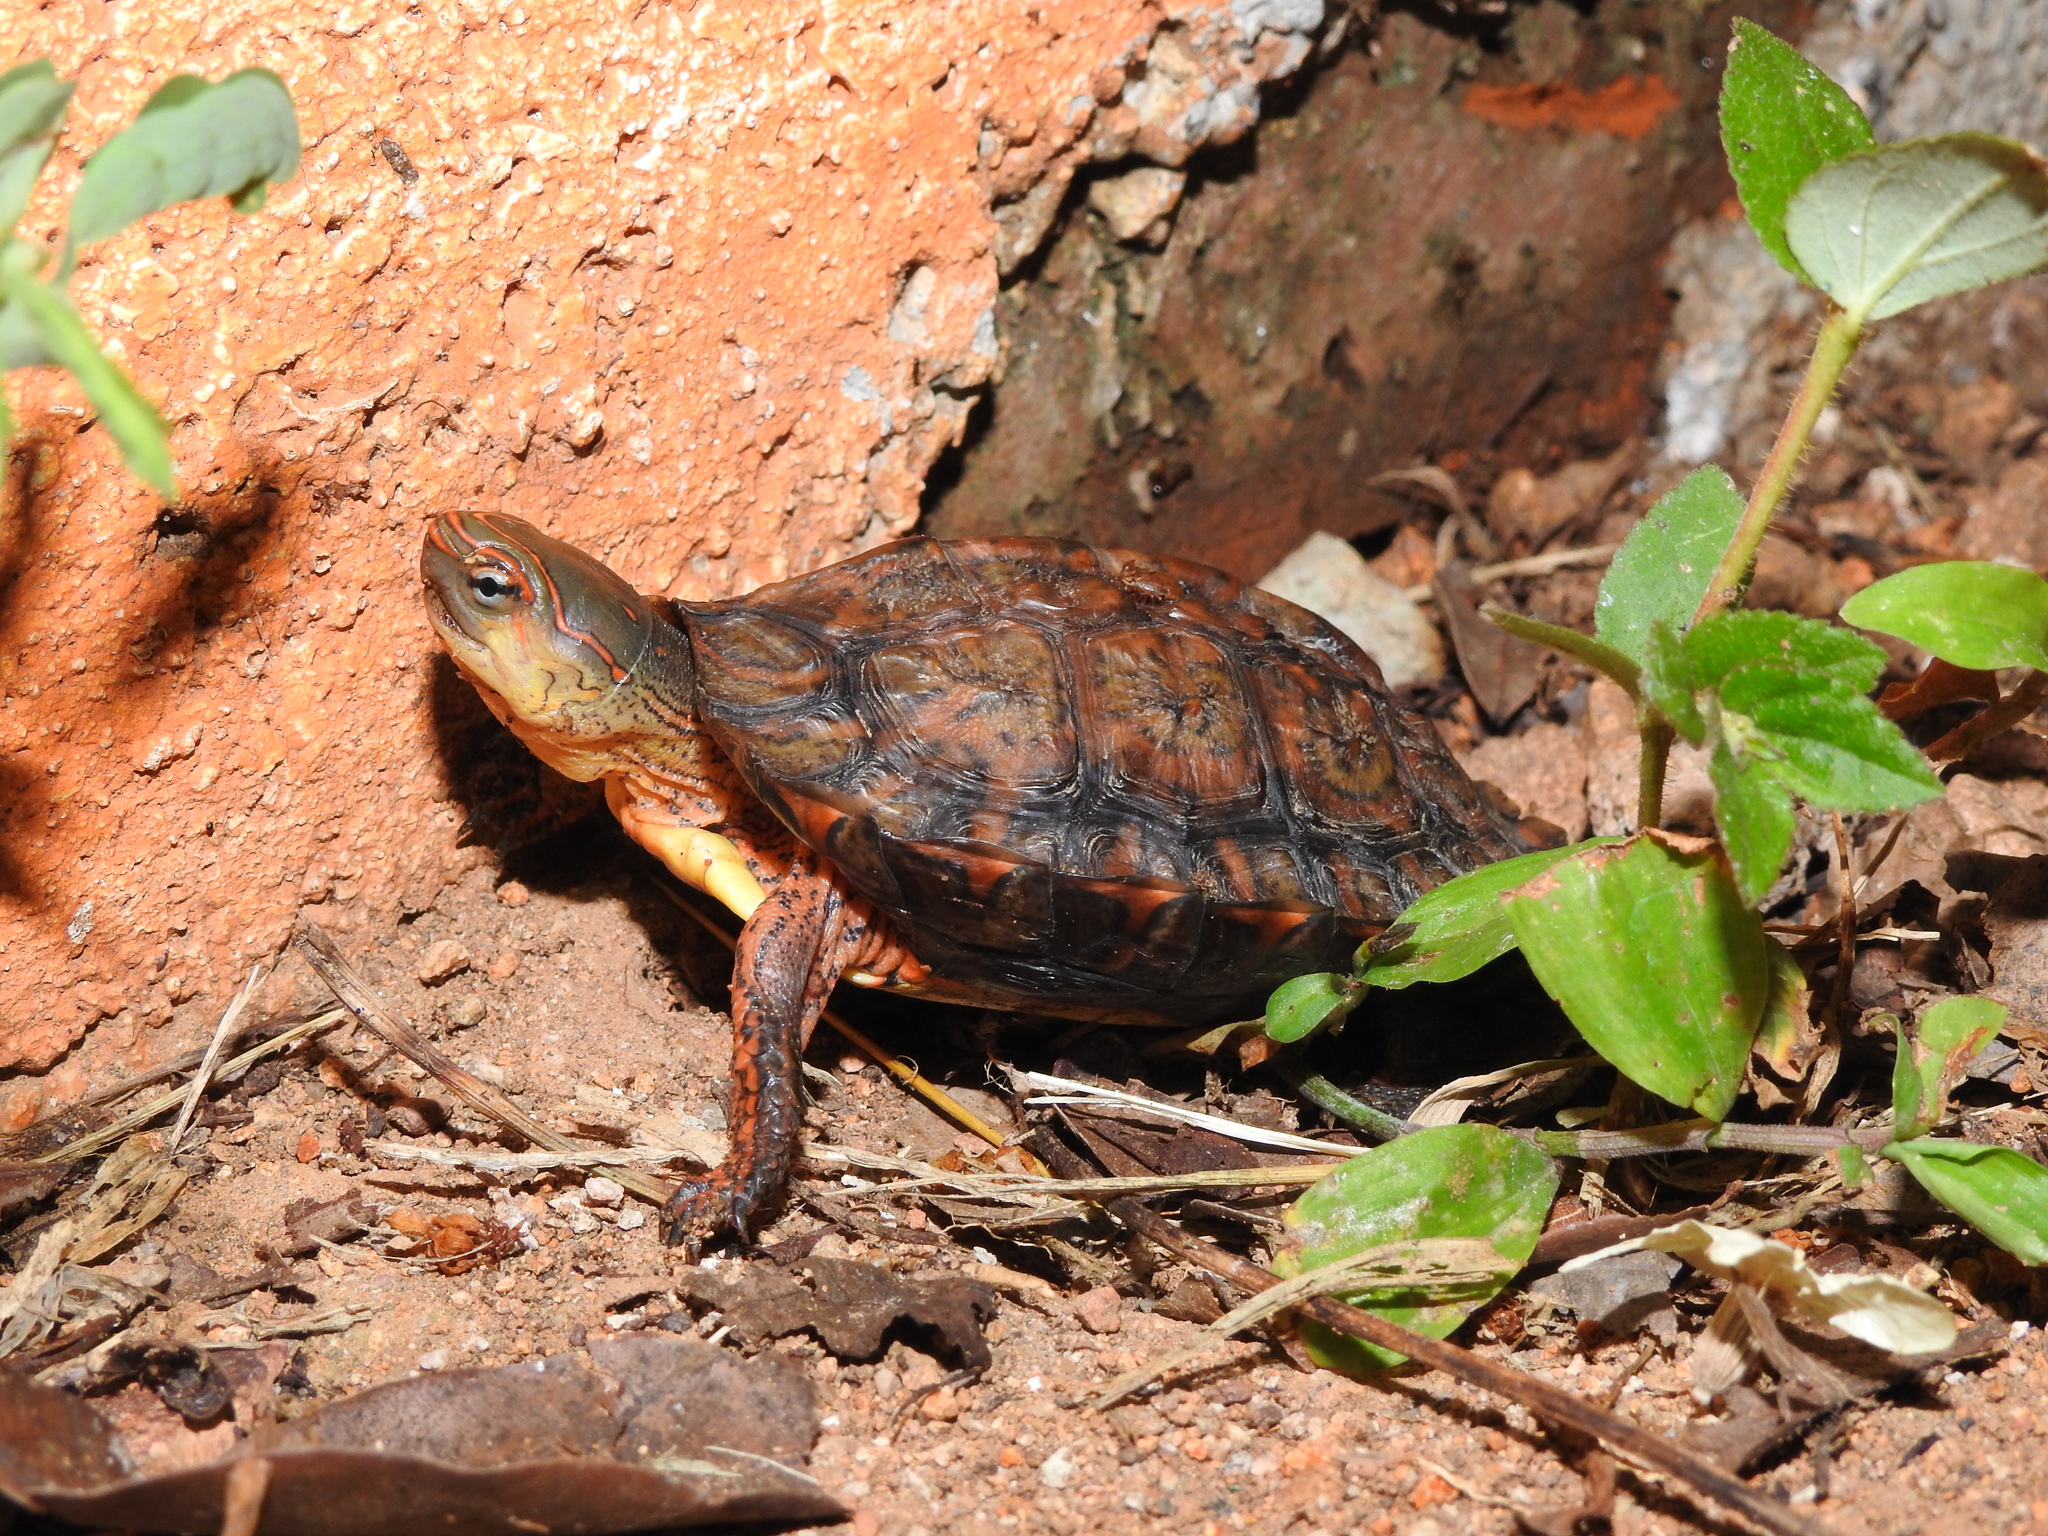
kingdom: Animalia
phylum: Chordata
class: Testudines
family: Geoemydidae
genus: Rhinoclemmys
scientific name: Rhinoclemmys pulcherrima
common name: Painted wood turtle
